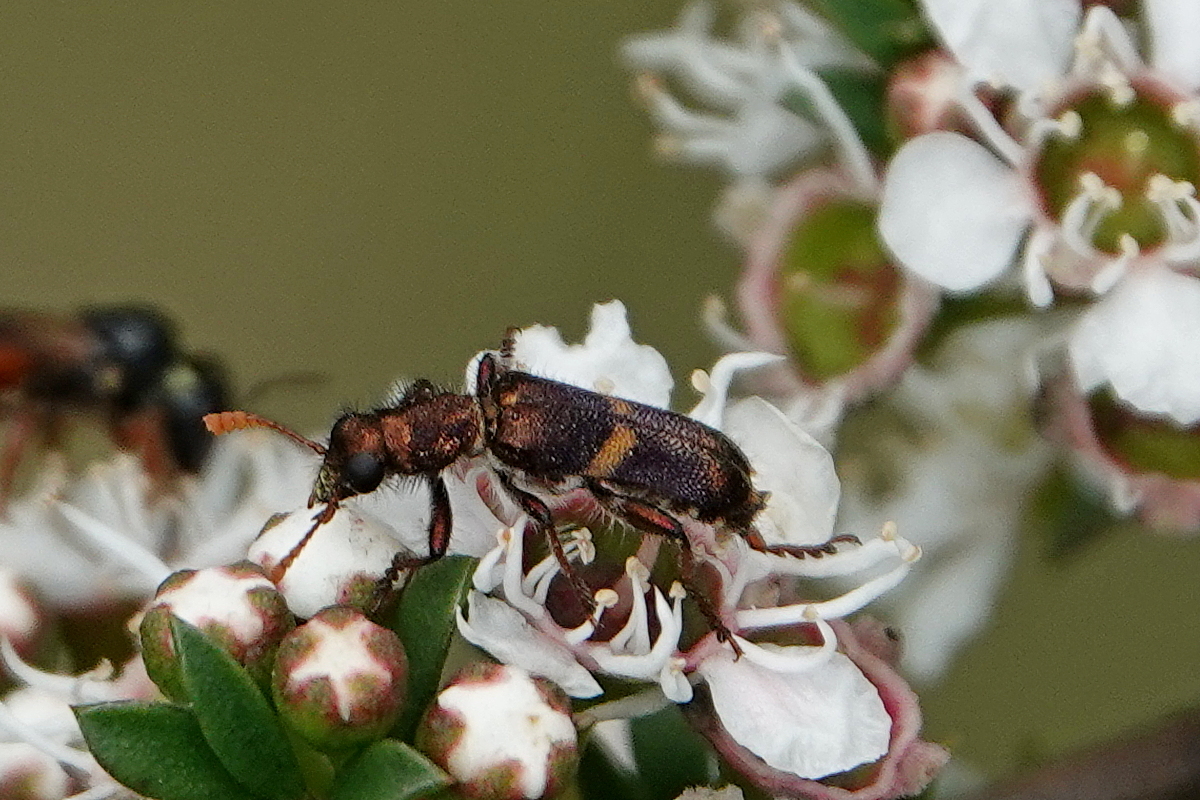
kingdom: Animalia
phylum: Arthropoda
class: Insecta
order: Coleoptera
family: Cleridae
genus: Eleale
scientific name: Eleale
